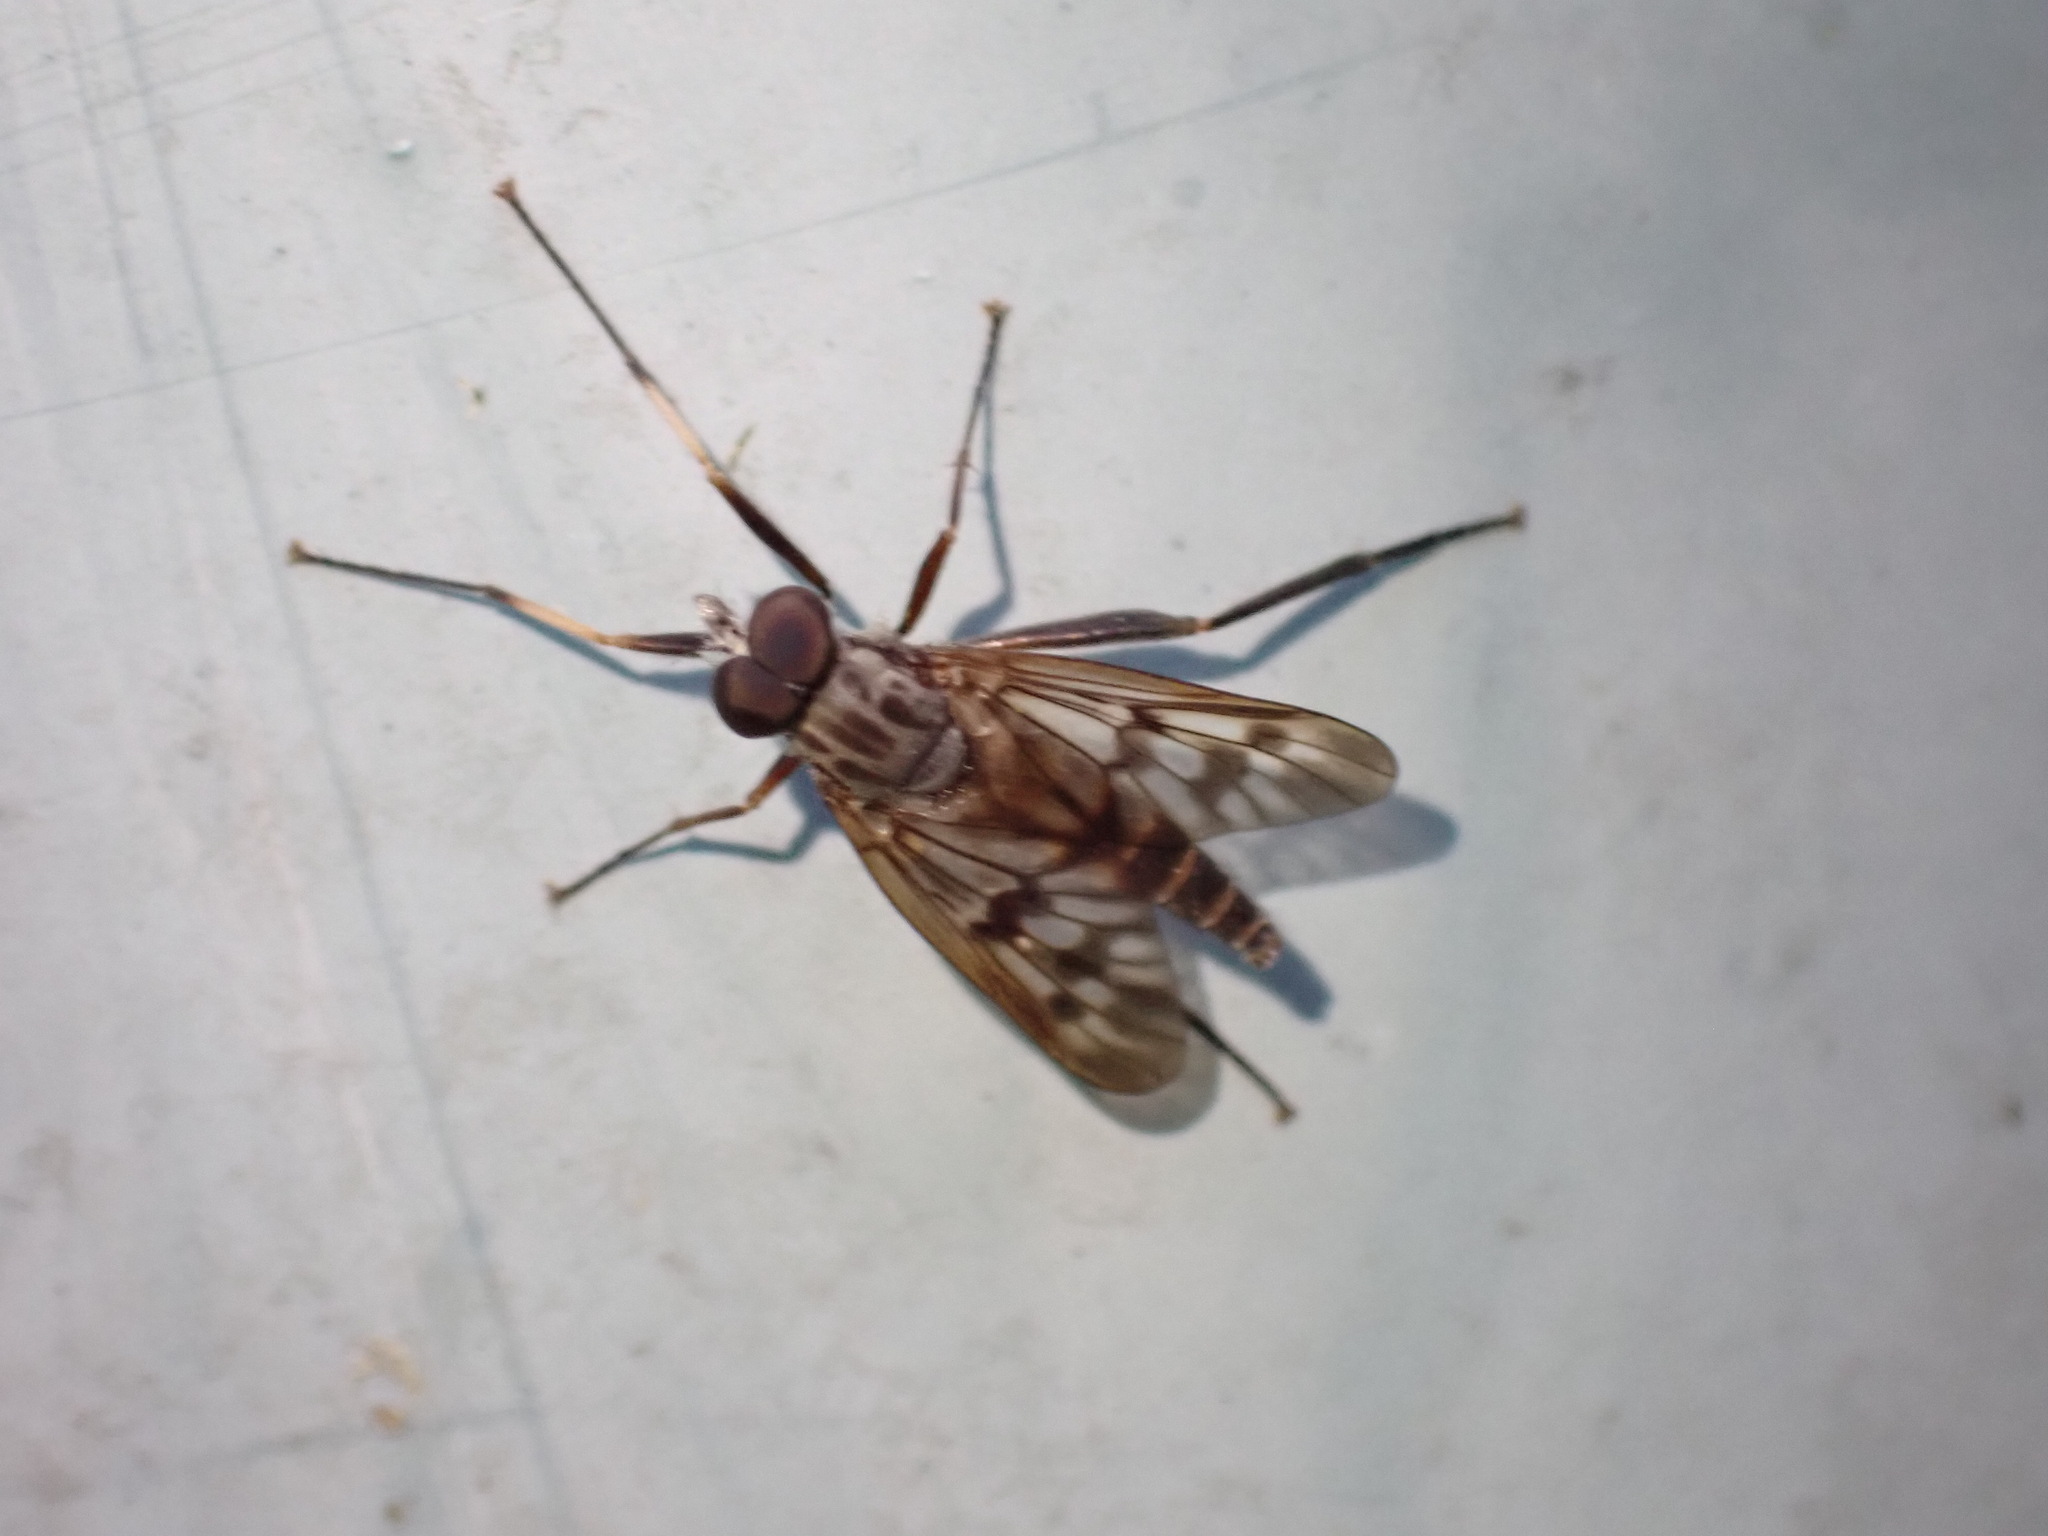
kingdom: Animalia
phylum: Arthropoda
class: Insecta
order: Diptera
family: Rhagionidae
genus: Rhagio
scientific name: Rhagio mystaceus
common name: Common snipe fly
